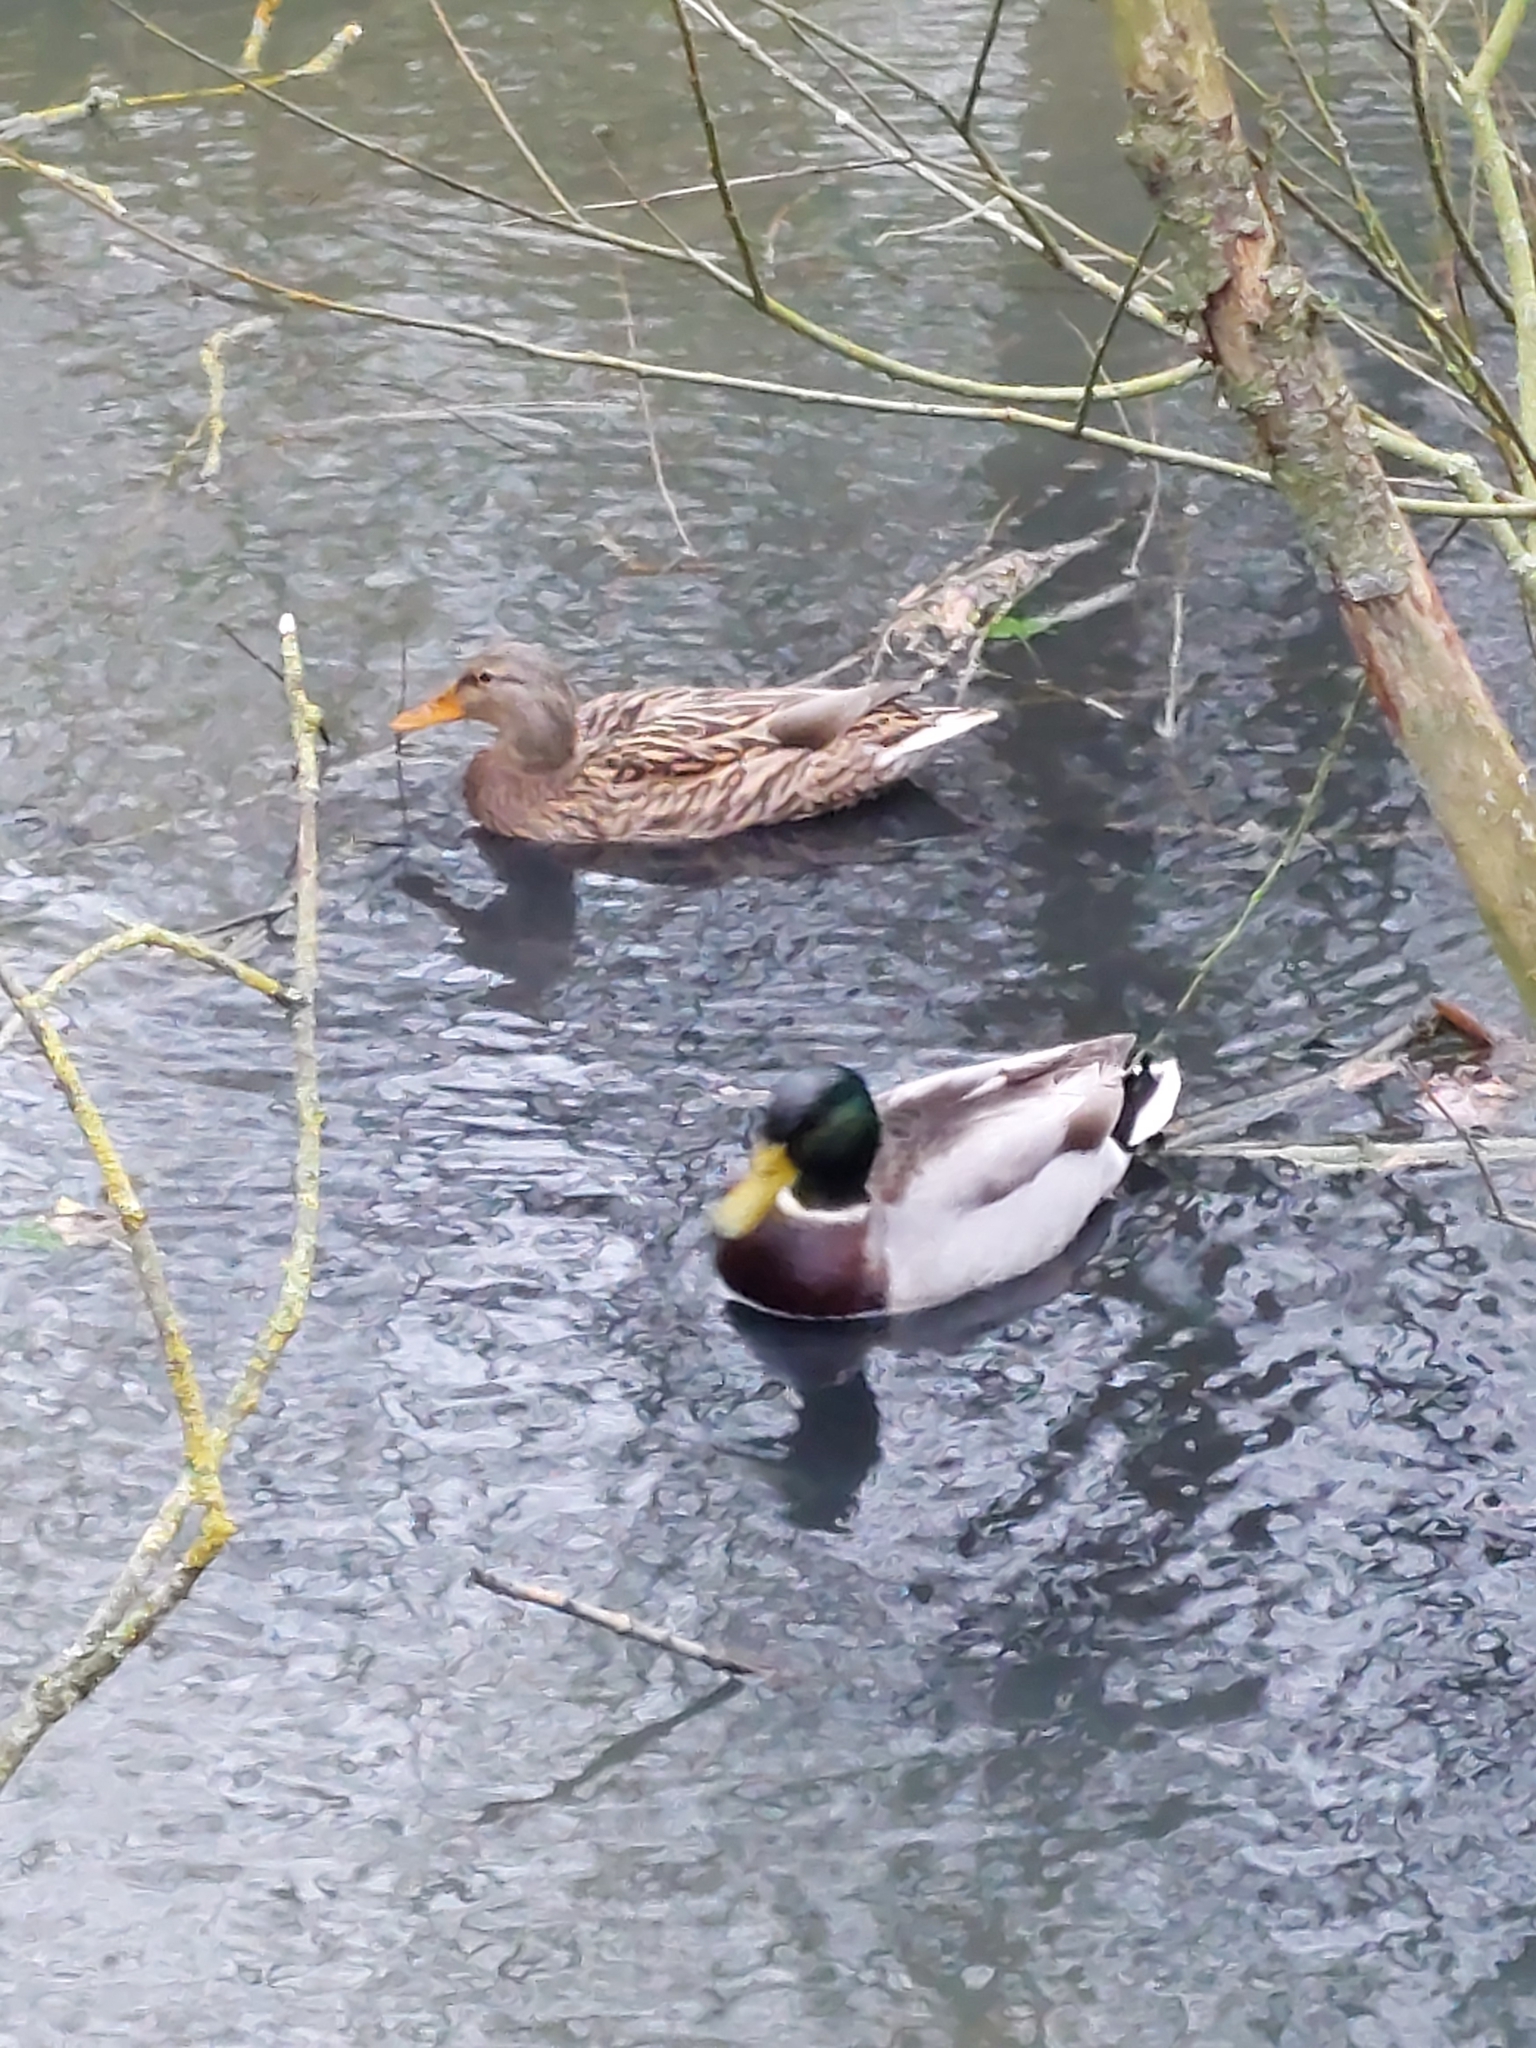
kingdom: Animalia
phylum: Chordata
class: Aves
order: Anseriformes
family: Anatidae
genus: Anas
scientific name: Anas platyrhynchos
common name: Mallard
